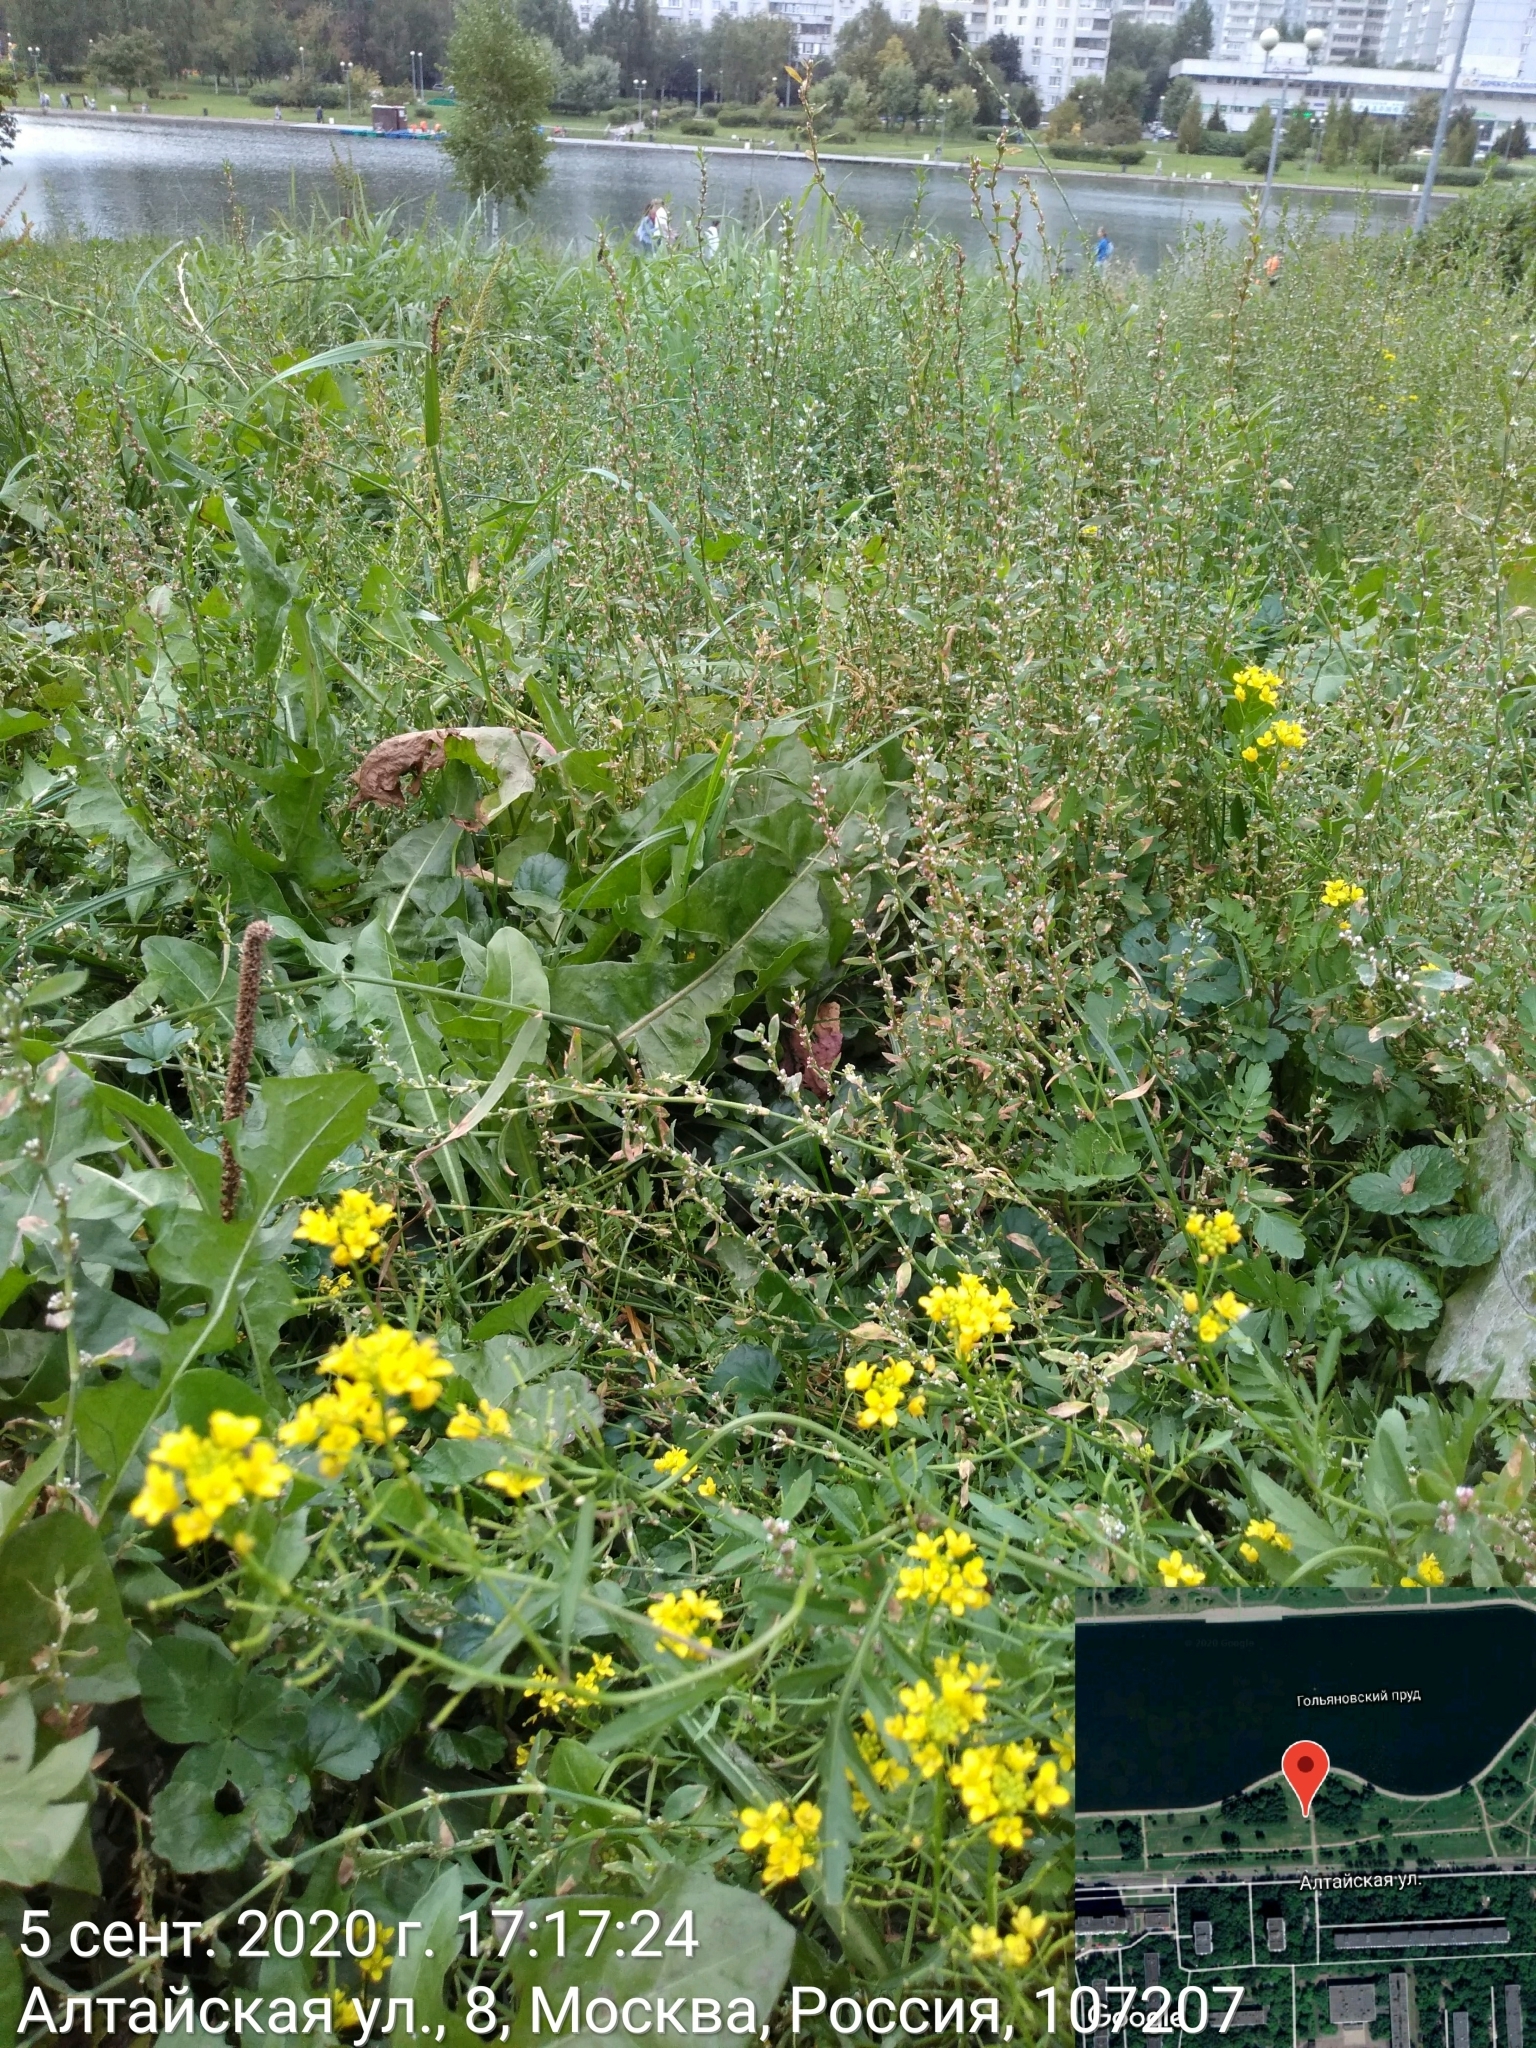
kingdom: Plantae
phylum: Tracheophyta
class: Magnoliopsida
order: Brassicales
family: Brassicaceae
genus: Rorippa
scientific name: Rorippa sylvestris
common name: Creeping yellowcress
